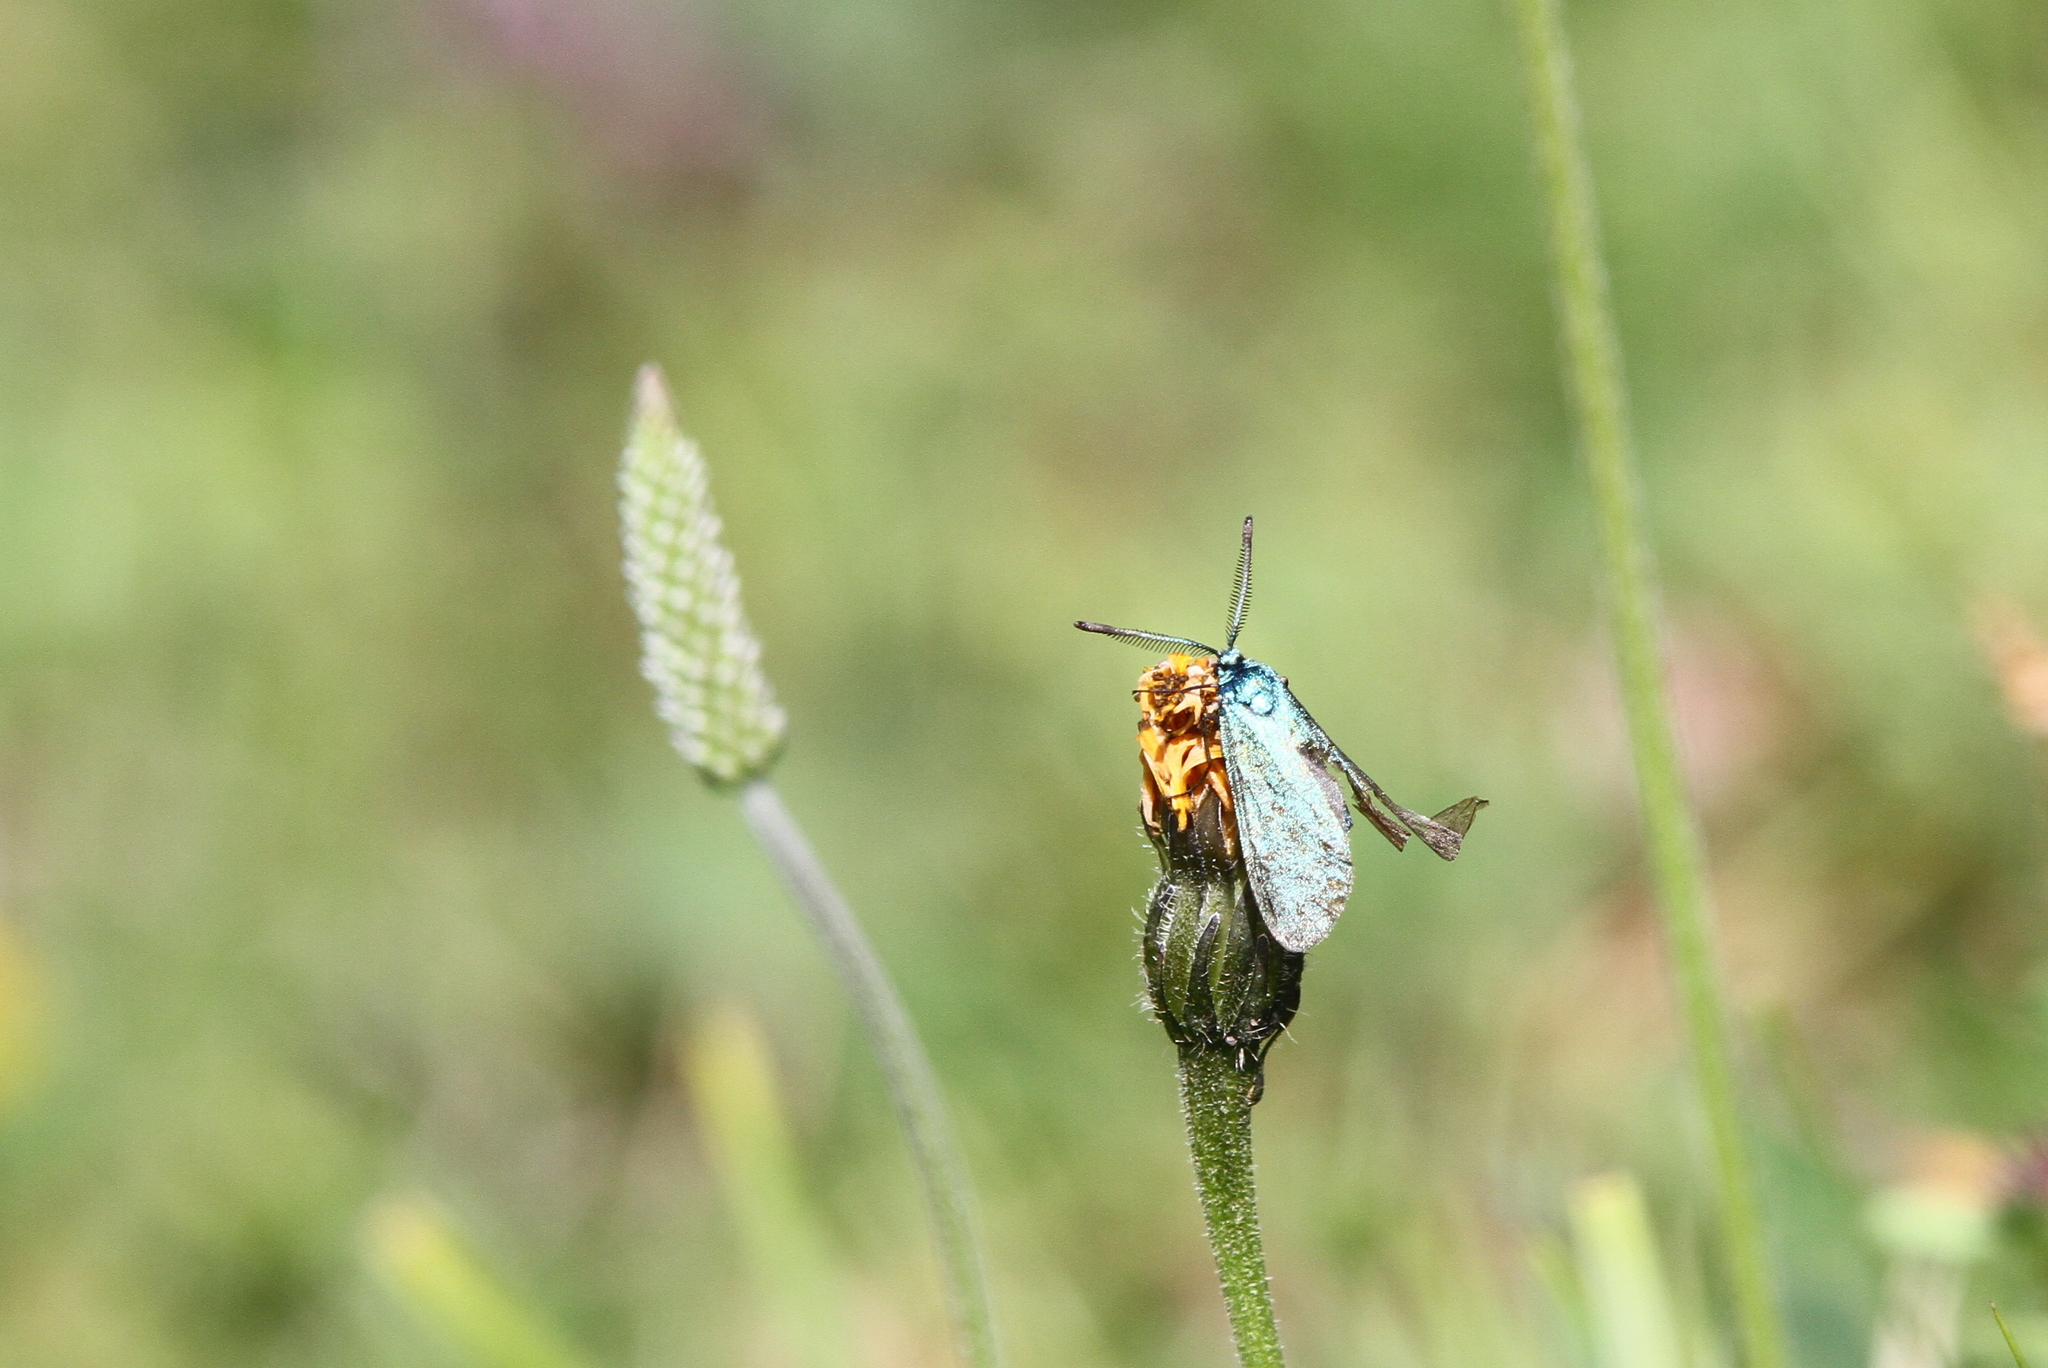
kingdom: Animalia
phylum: Arthropoda
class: Insecta
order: Lepidoptera
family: Zygaenidae
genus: Adscita
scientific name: Adscita statices
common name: Forester
